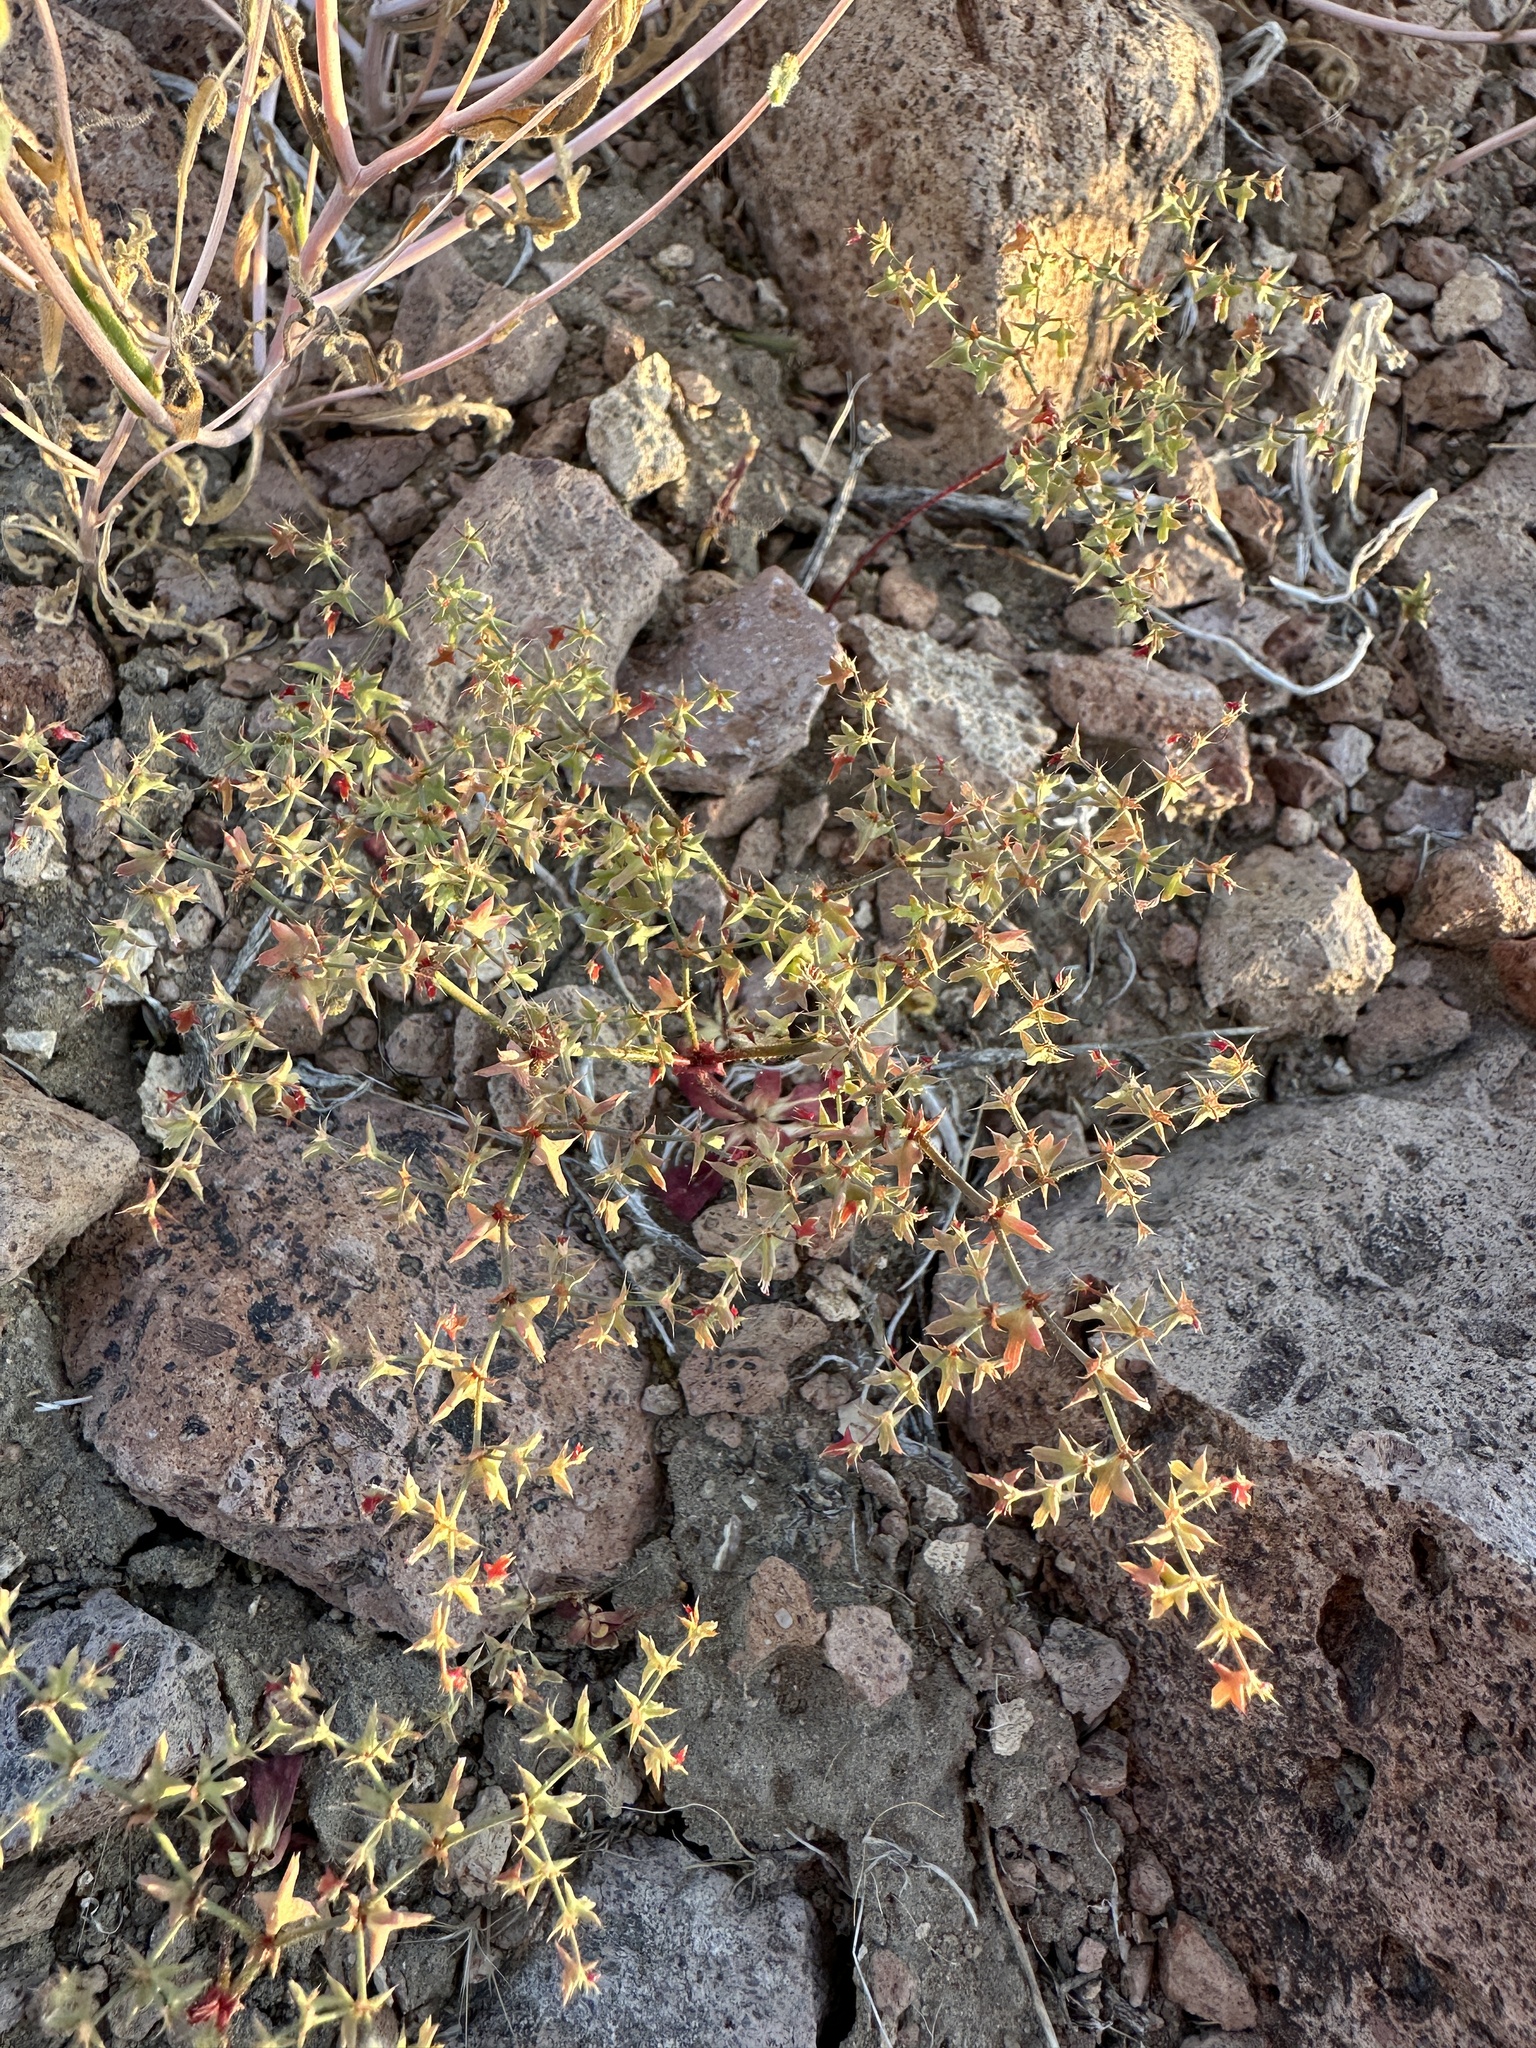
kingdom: Plantae
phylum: Tracheophyta
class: Magnoliopsida
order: Caryophyllales
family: Polygonaceae
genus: Centrostegia
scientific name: Centrostegia thurberi
